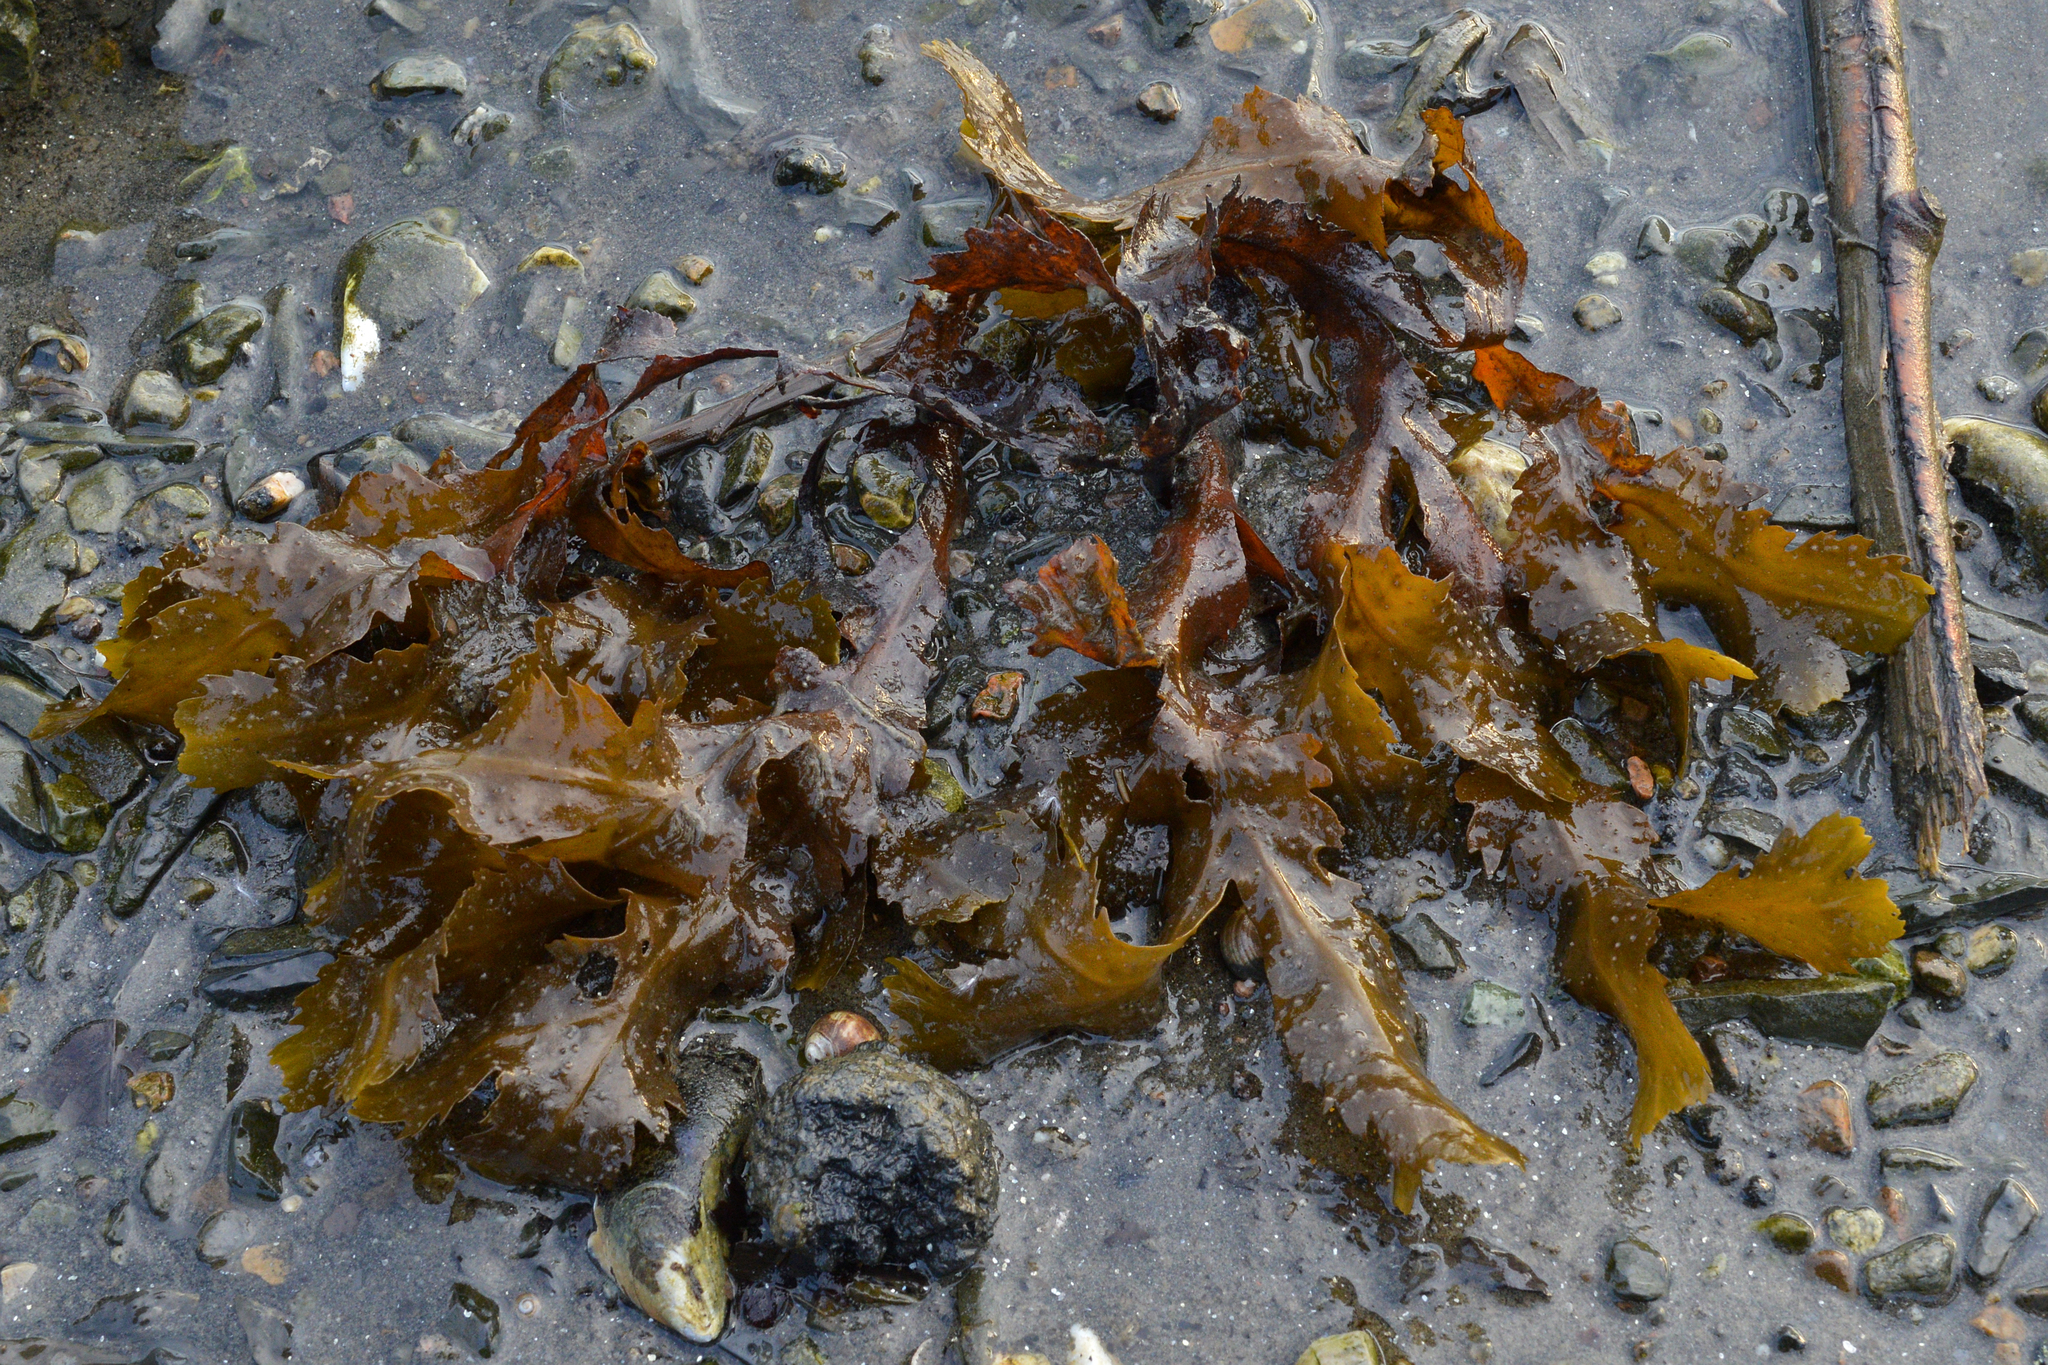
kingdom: Chromista
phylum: Ochrophyta
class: Phaeophyceae
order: Fucales
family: Fucaceae
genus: Fucus
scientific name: Fucus serratus
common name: Toothed wrack
